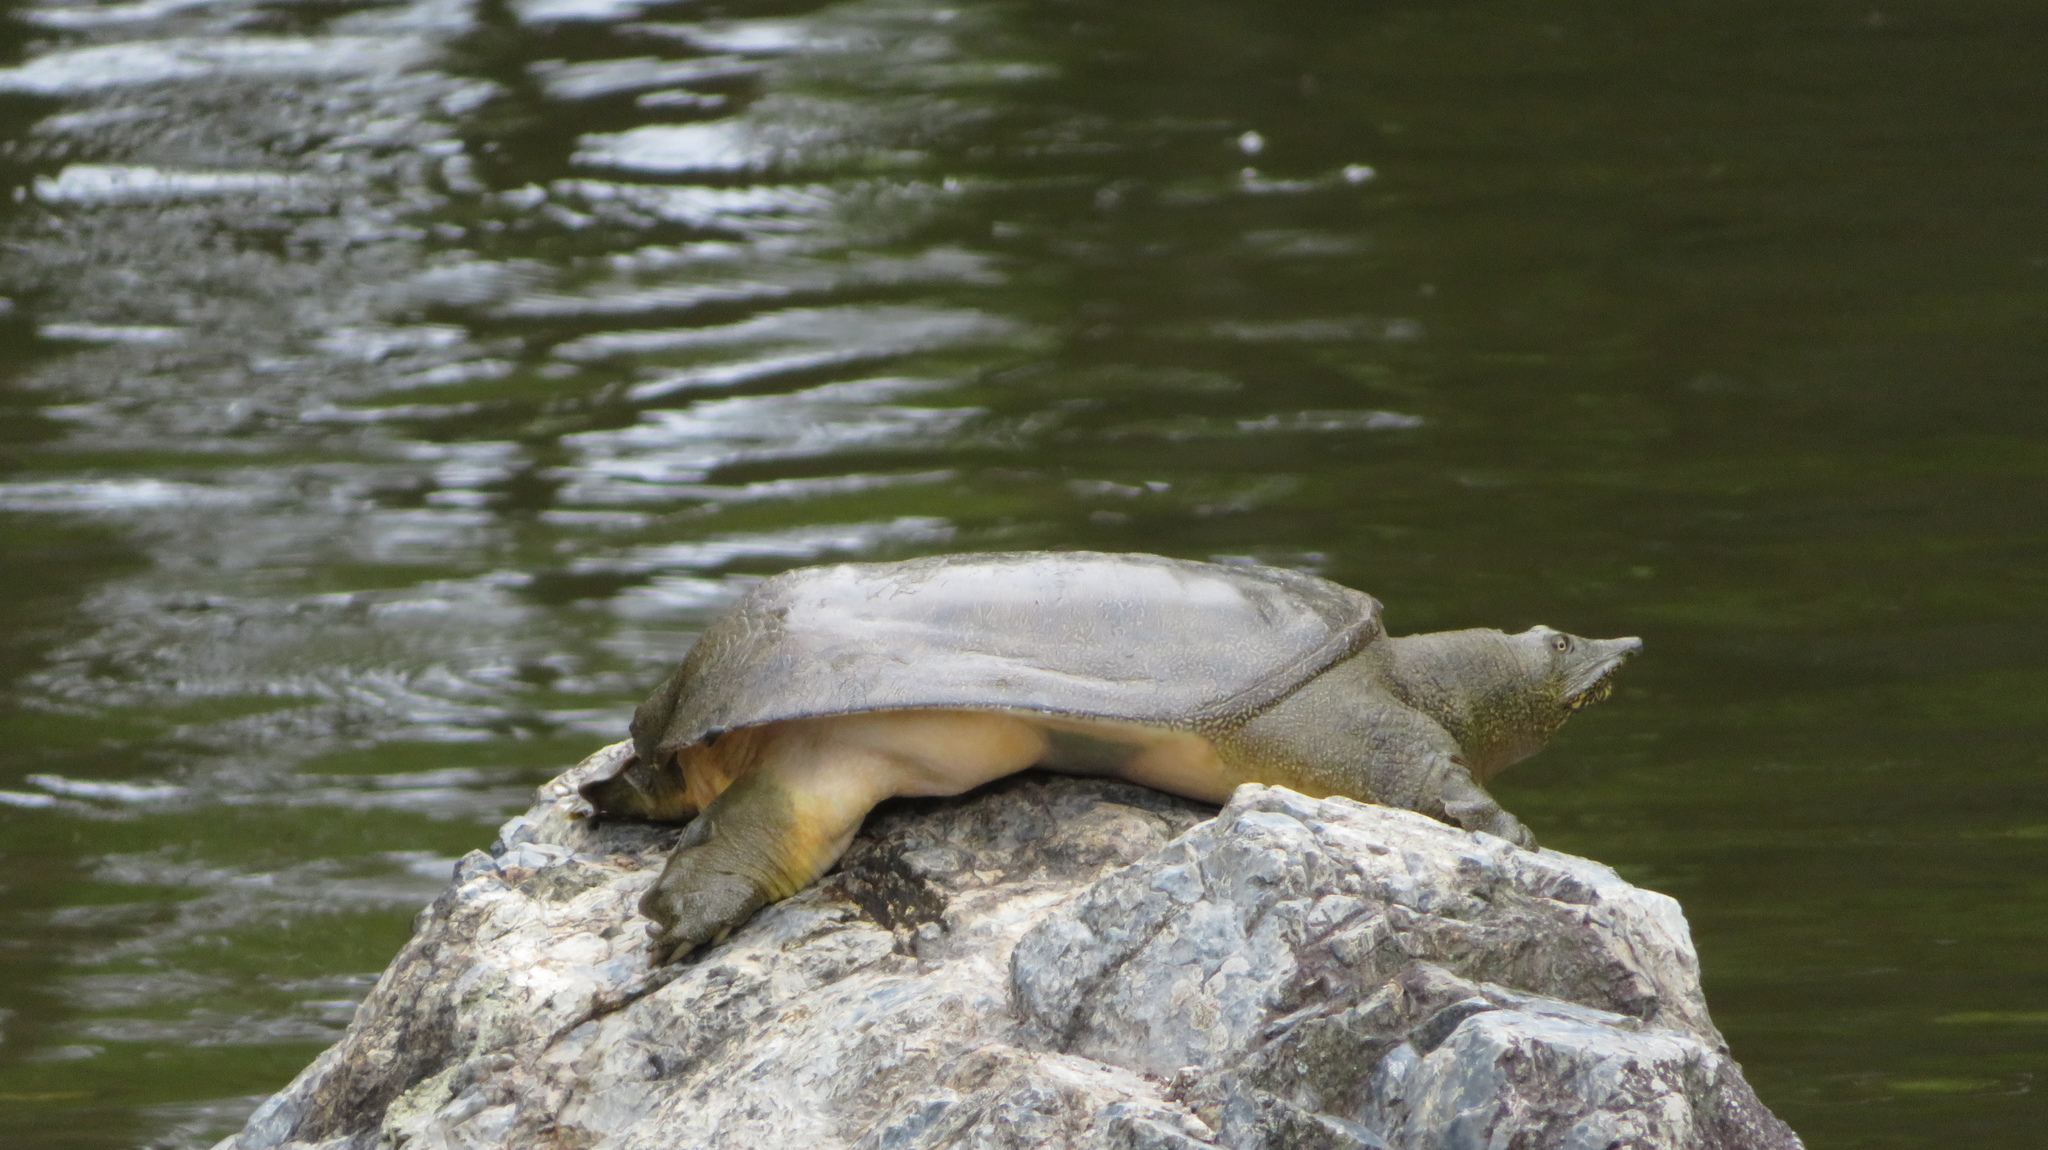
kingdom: Animalia
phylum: Chordata
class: Testudines
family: Trionychidae
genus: Pelodiscus
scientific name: Pelodiscus sinensis
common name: Chinese softshell turtle
